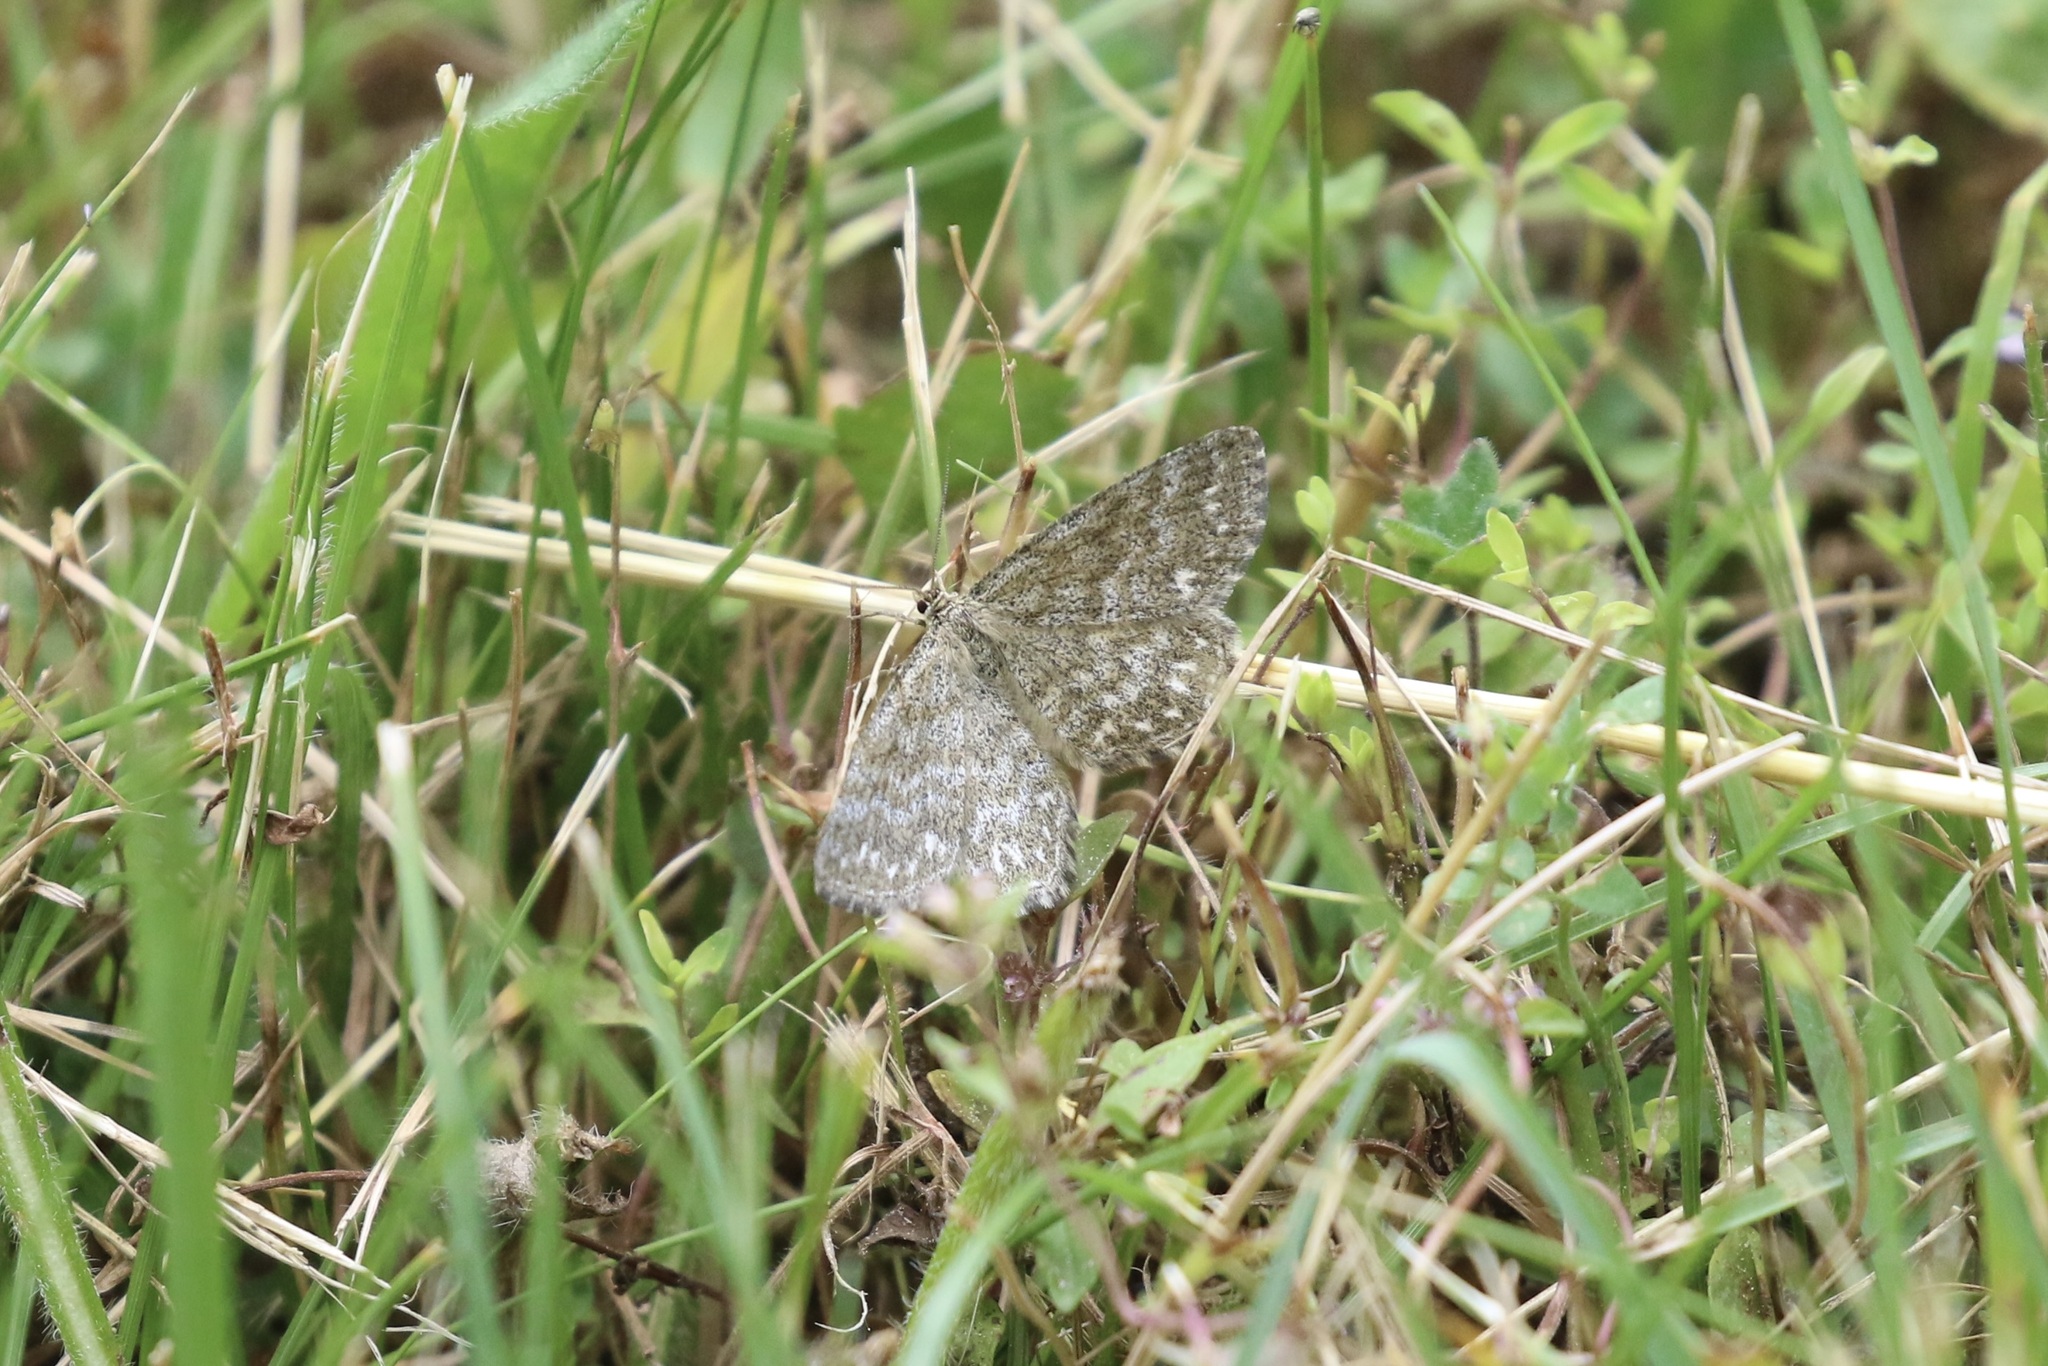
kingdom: Animalia
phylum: Arthropoda
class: Insecta
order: Lepidoptera
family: Geometridae
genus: Scopula
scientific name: Scopula immorata
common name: Lewes wave
